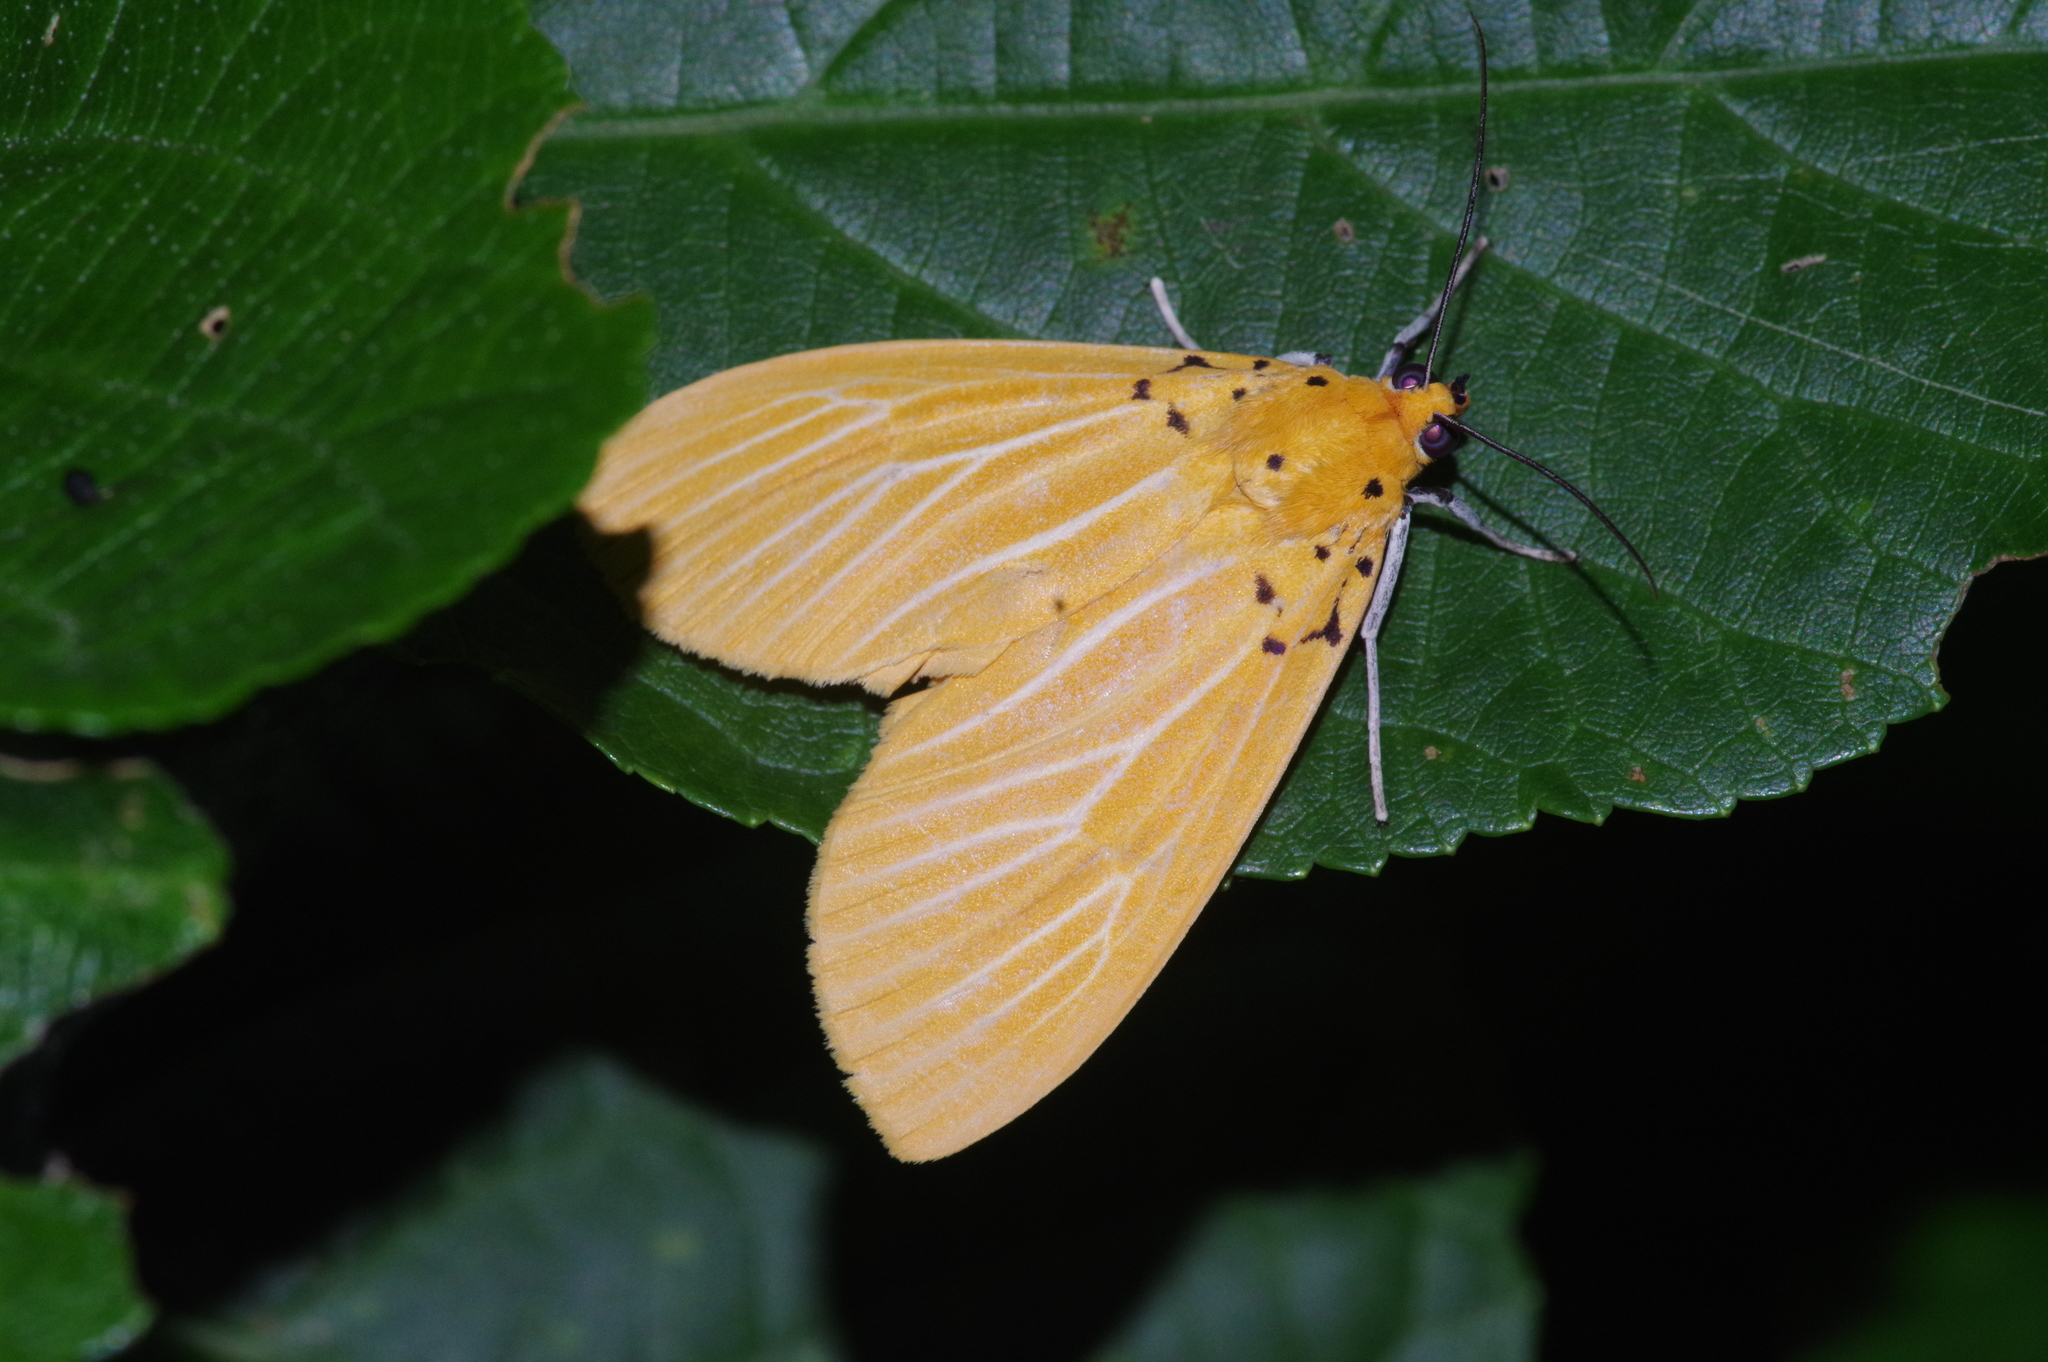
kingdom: Animalia
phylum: Arthropoda
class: Insecta
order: Lepidoptera
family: Erebidae
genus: Asota
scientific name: Asota egens
